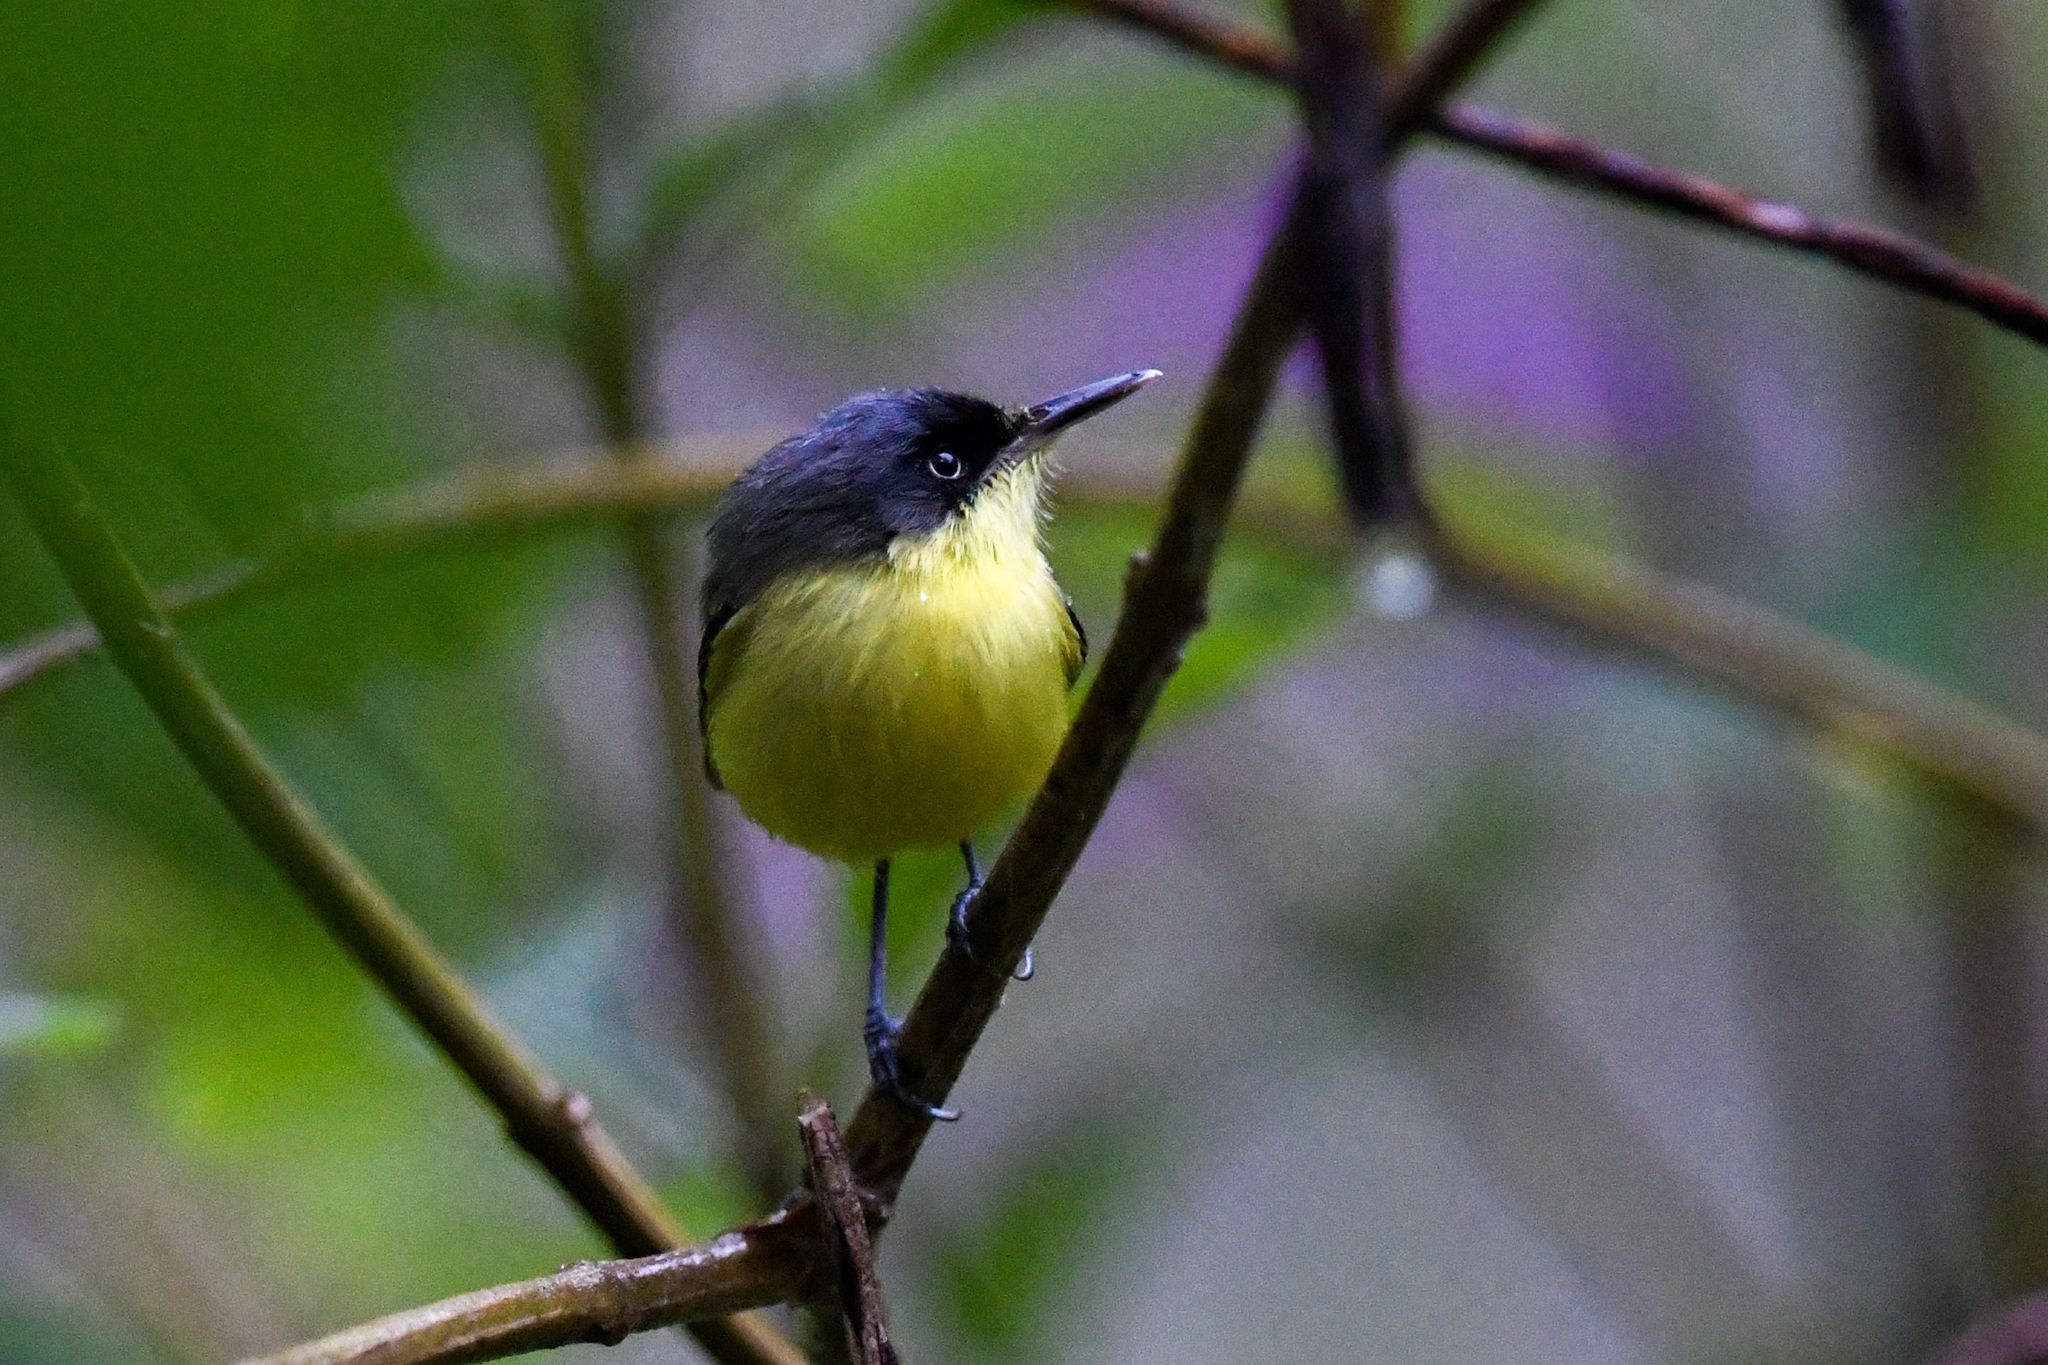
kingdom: Animalia
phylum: Chordata
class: Aves
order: Passeriformes
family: Tyrannidae
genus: Todirostrum
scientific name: Todirostrum cinereum
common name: Common tody-flycatcher
